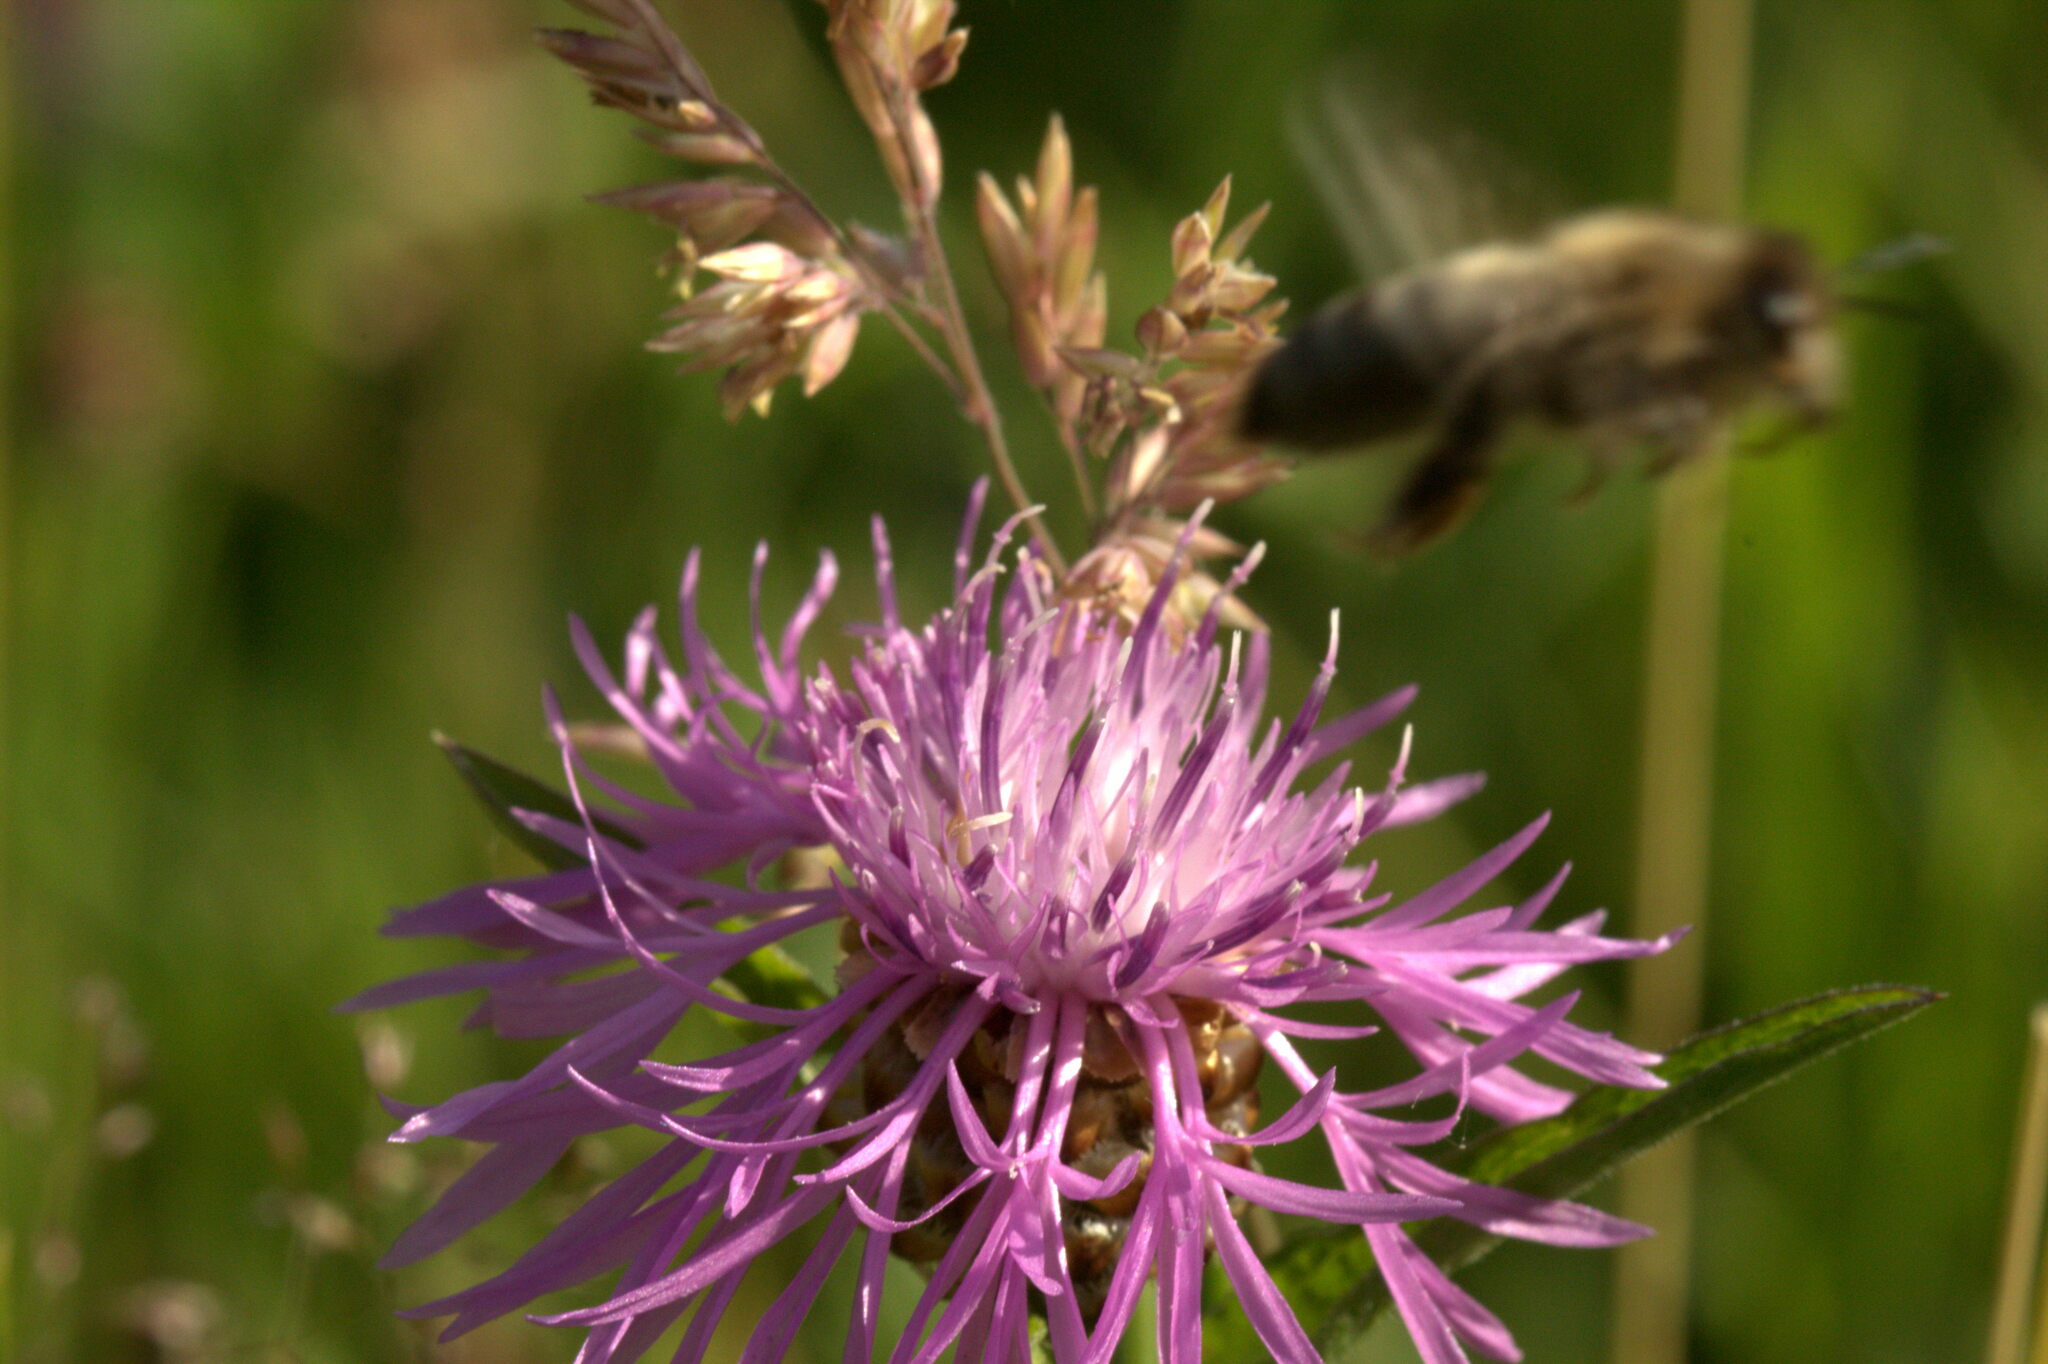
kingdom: Plantae
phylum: Tracheophyta
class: Magnoliopsida
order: Asterales
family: Asteraceae
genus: Centaurea
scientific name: Centaurea jacea
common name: Brown knapweed
